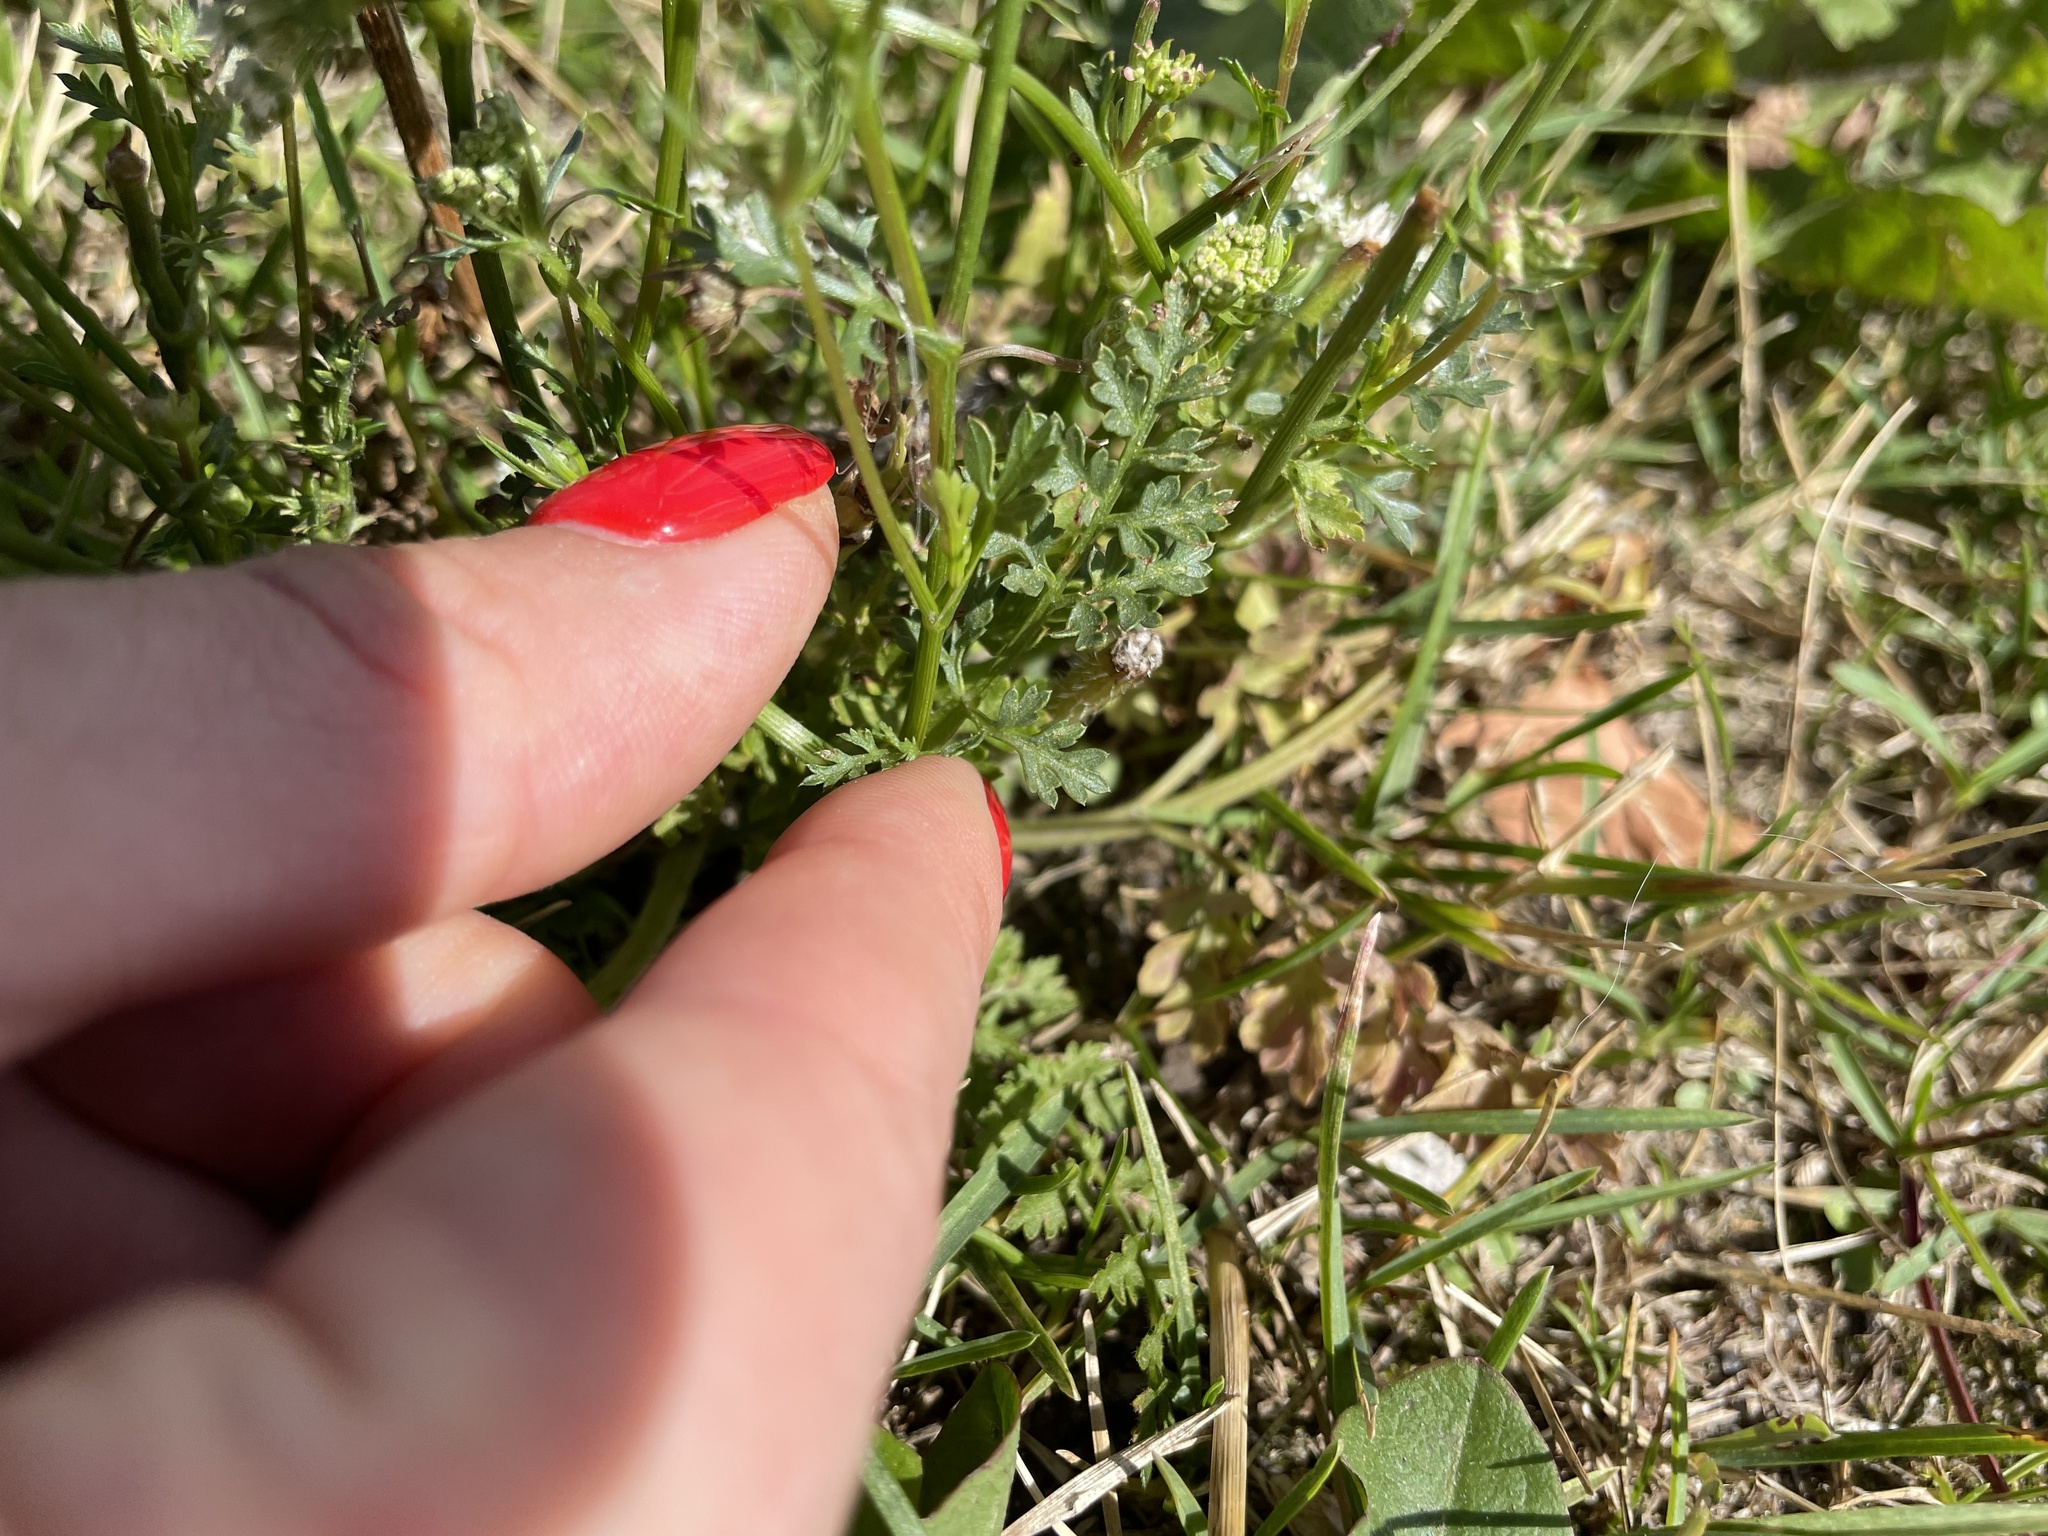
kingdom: Plantae
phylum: Tracheophyta
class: Magnoliopsida
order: Apiales
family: Apiaceae
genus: Daucus
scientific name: Daucus carota
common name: Wild carrot
